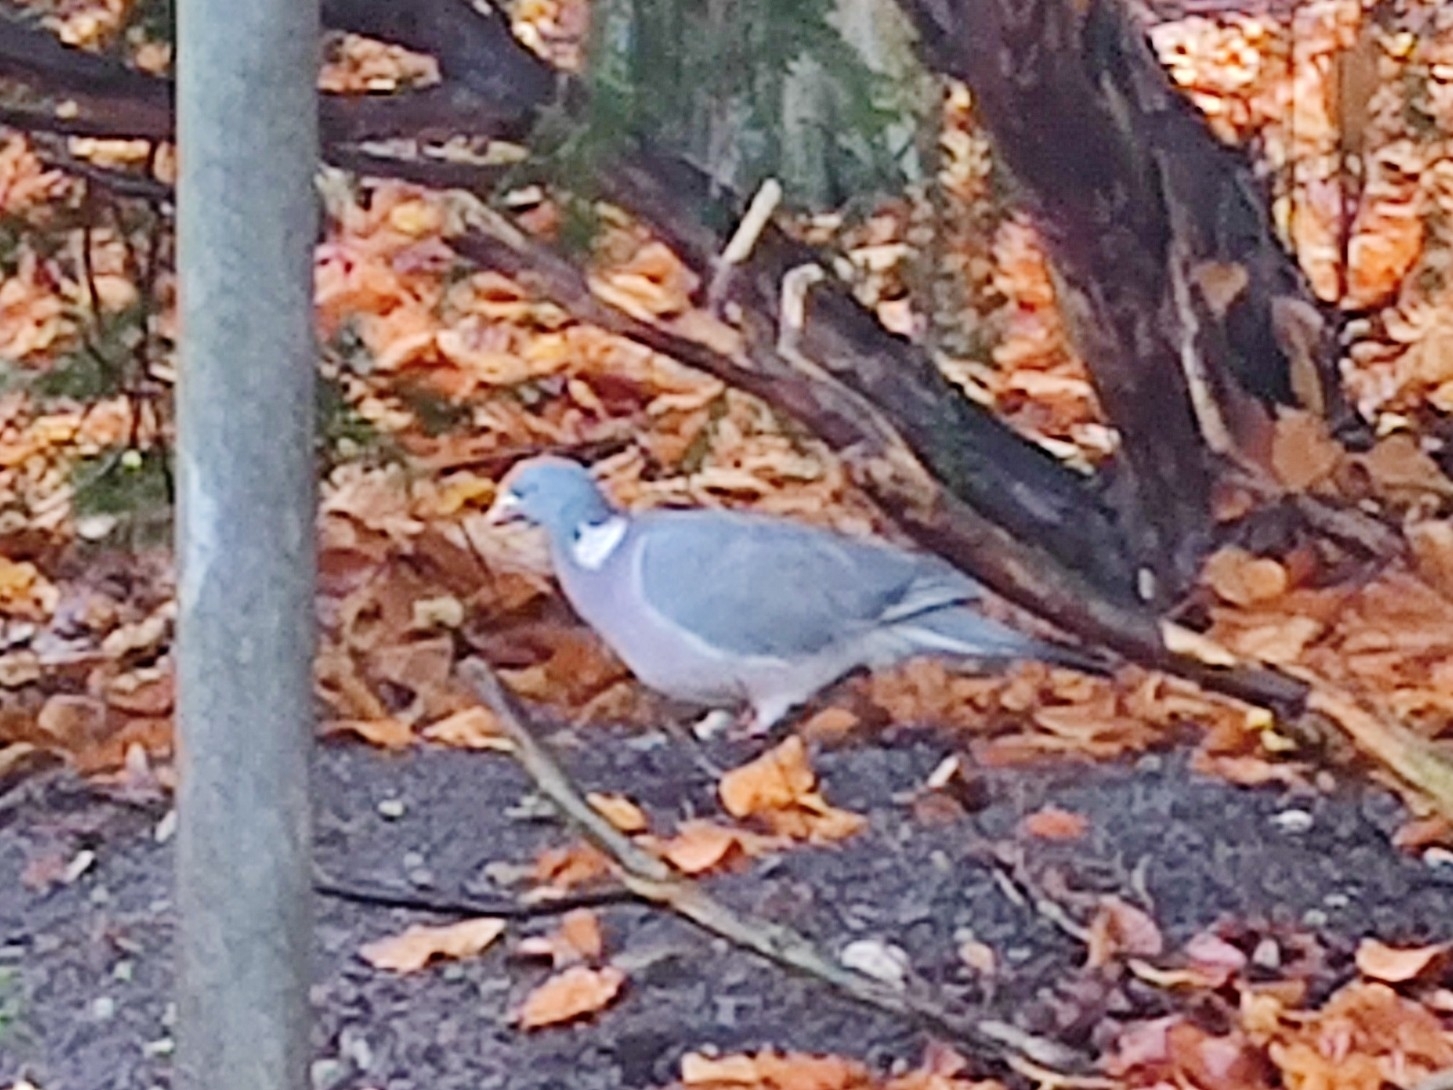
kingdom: Animalia
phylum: Chordata
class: Aves
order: Columbiformes
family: Columbidae
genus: Columba
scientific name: Columba palumbus
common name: Common wood pigeon
